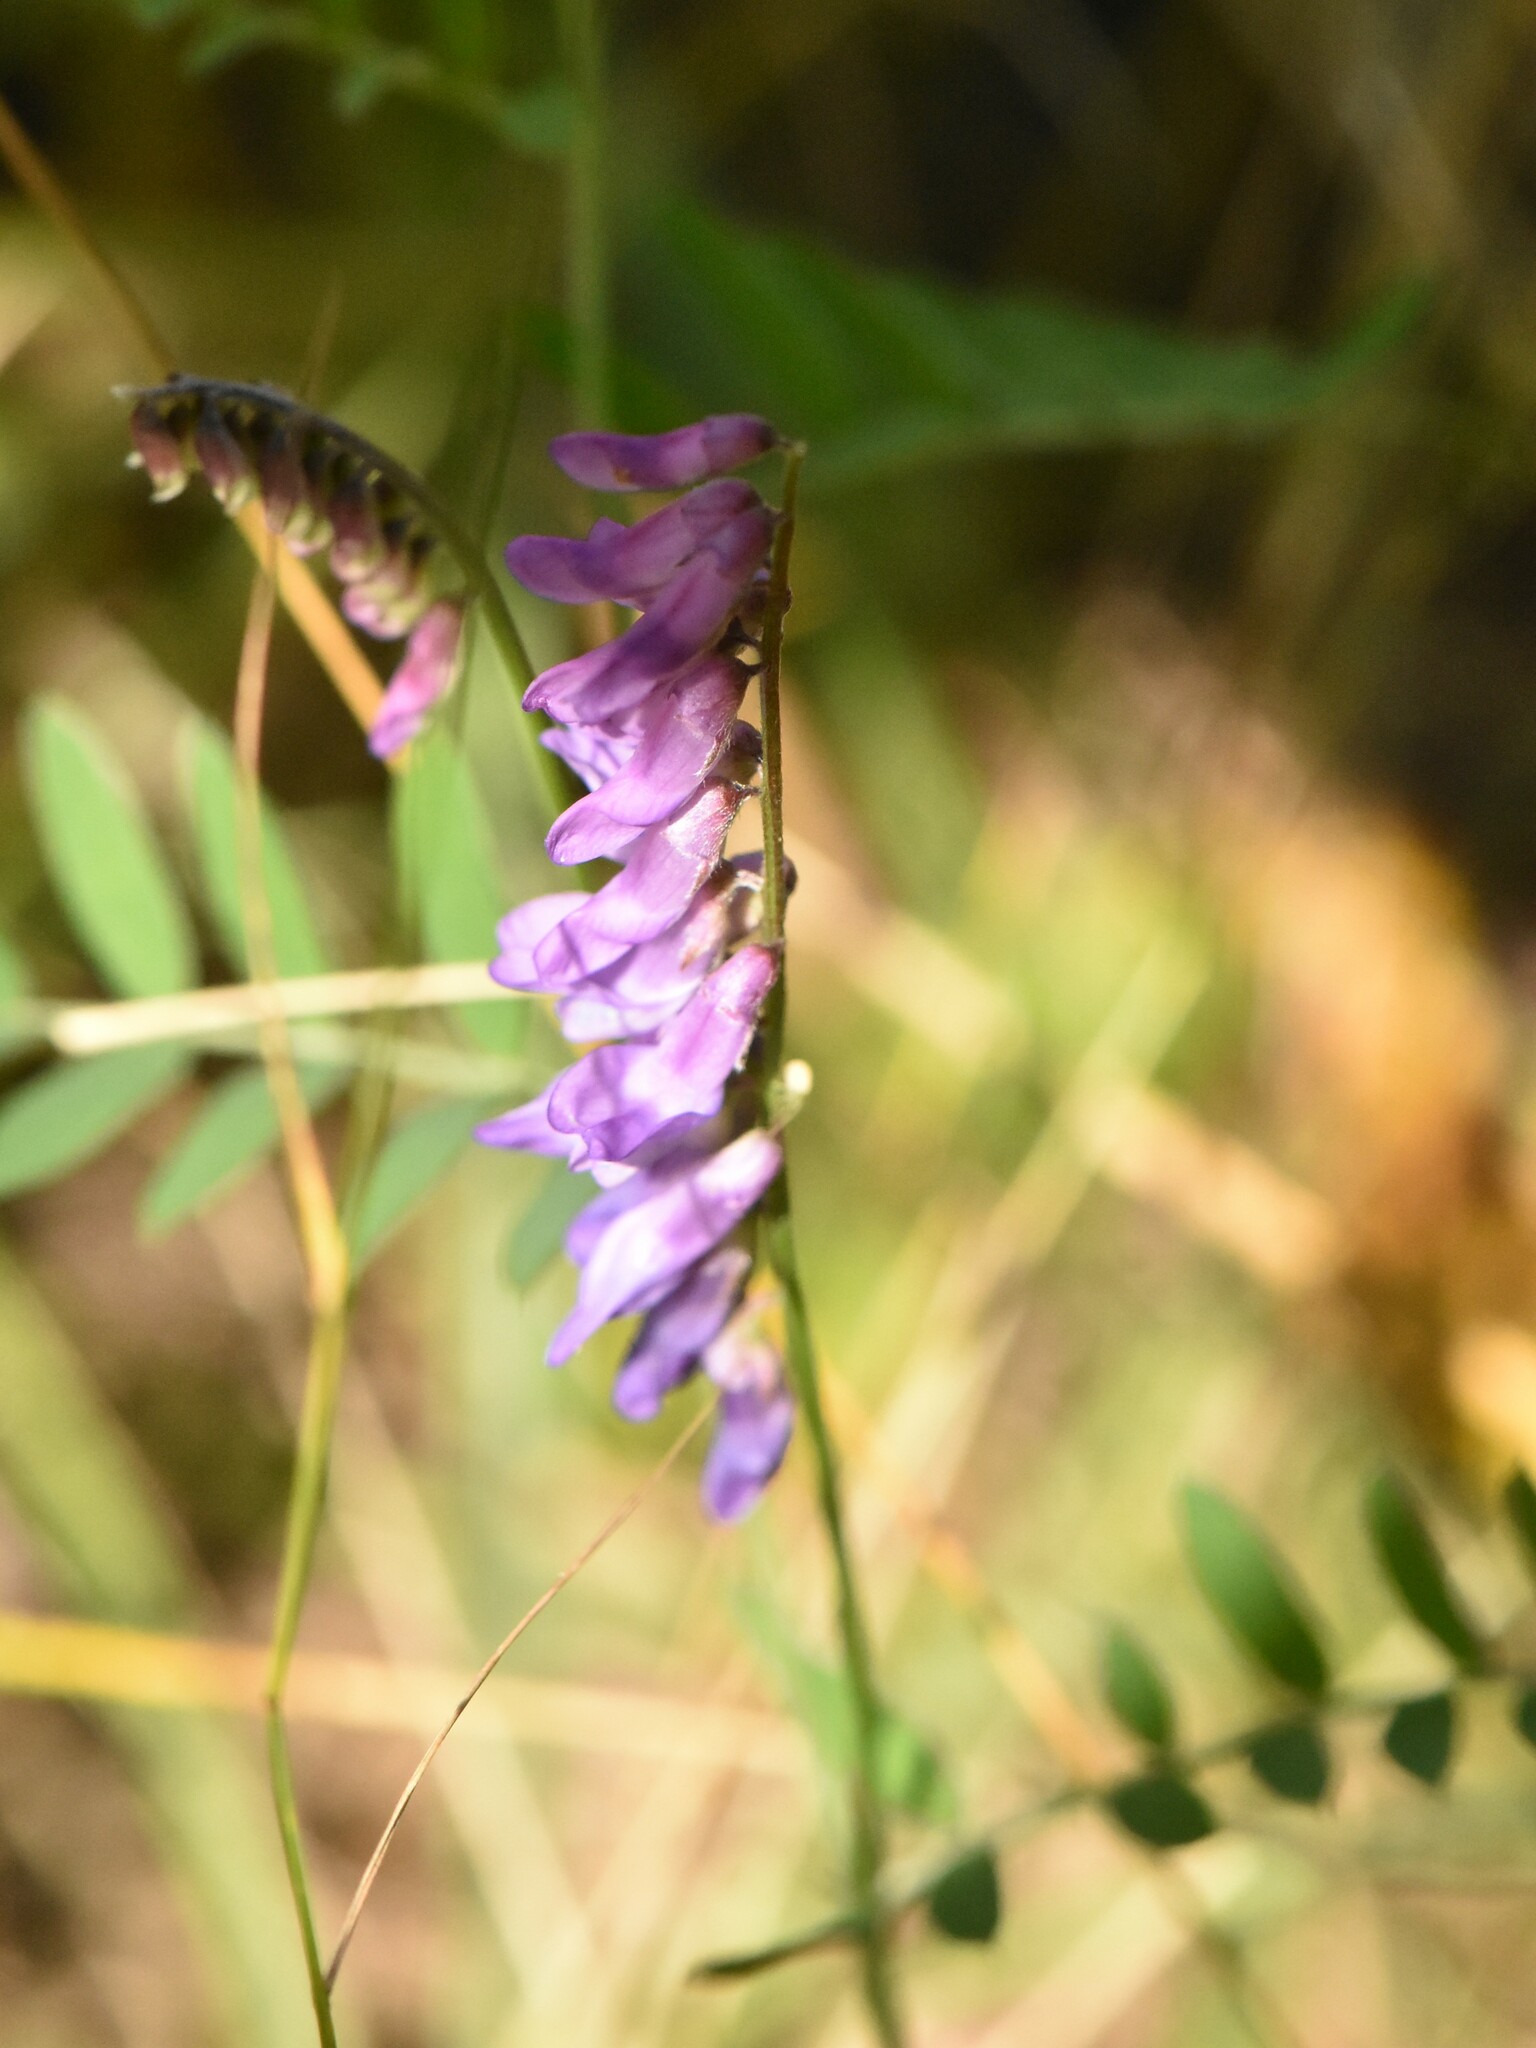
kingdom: Plantae
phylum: Tracheophyta
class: Magnoliopsida
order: Fabales
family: Fabaceae
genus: Vicia
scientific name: Vicia cracca
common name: Bird vetch
